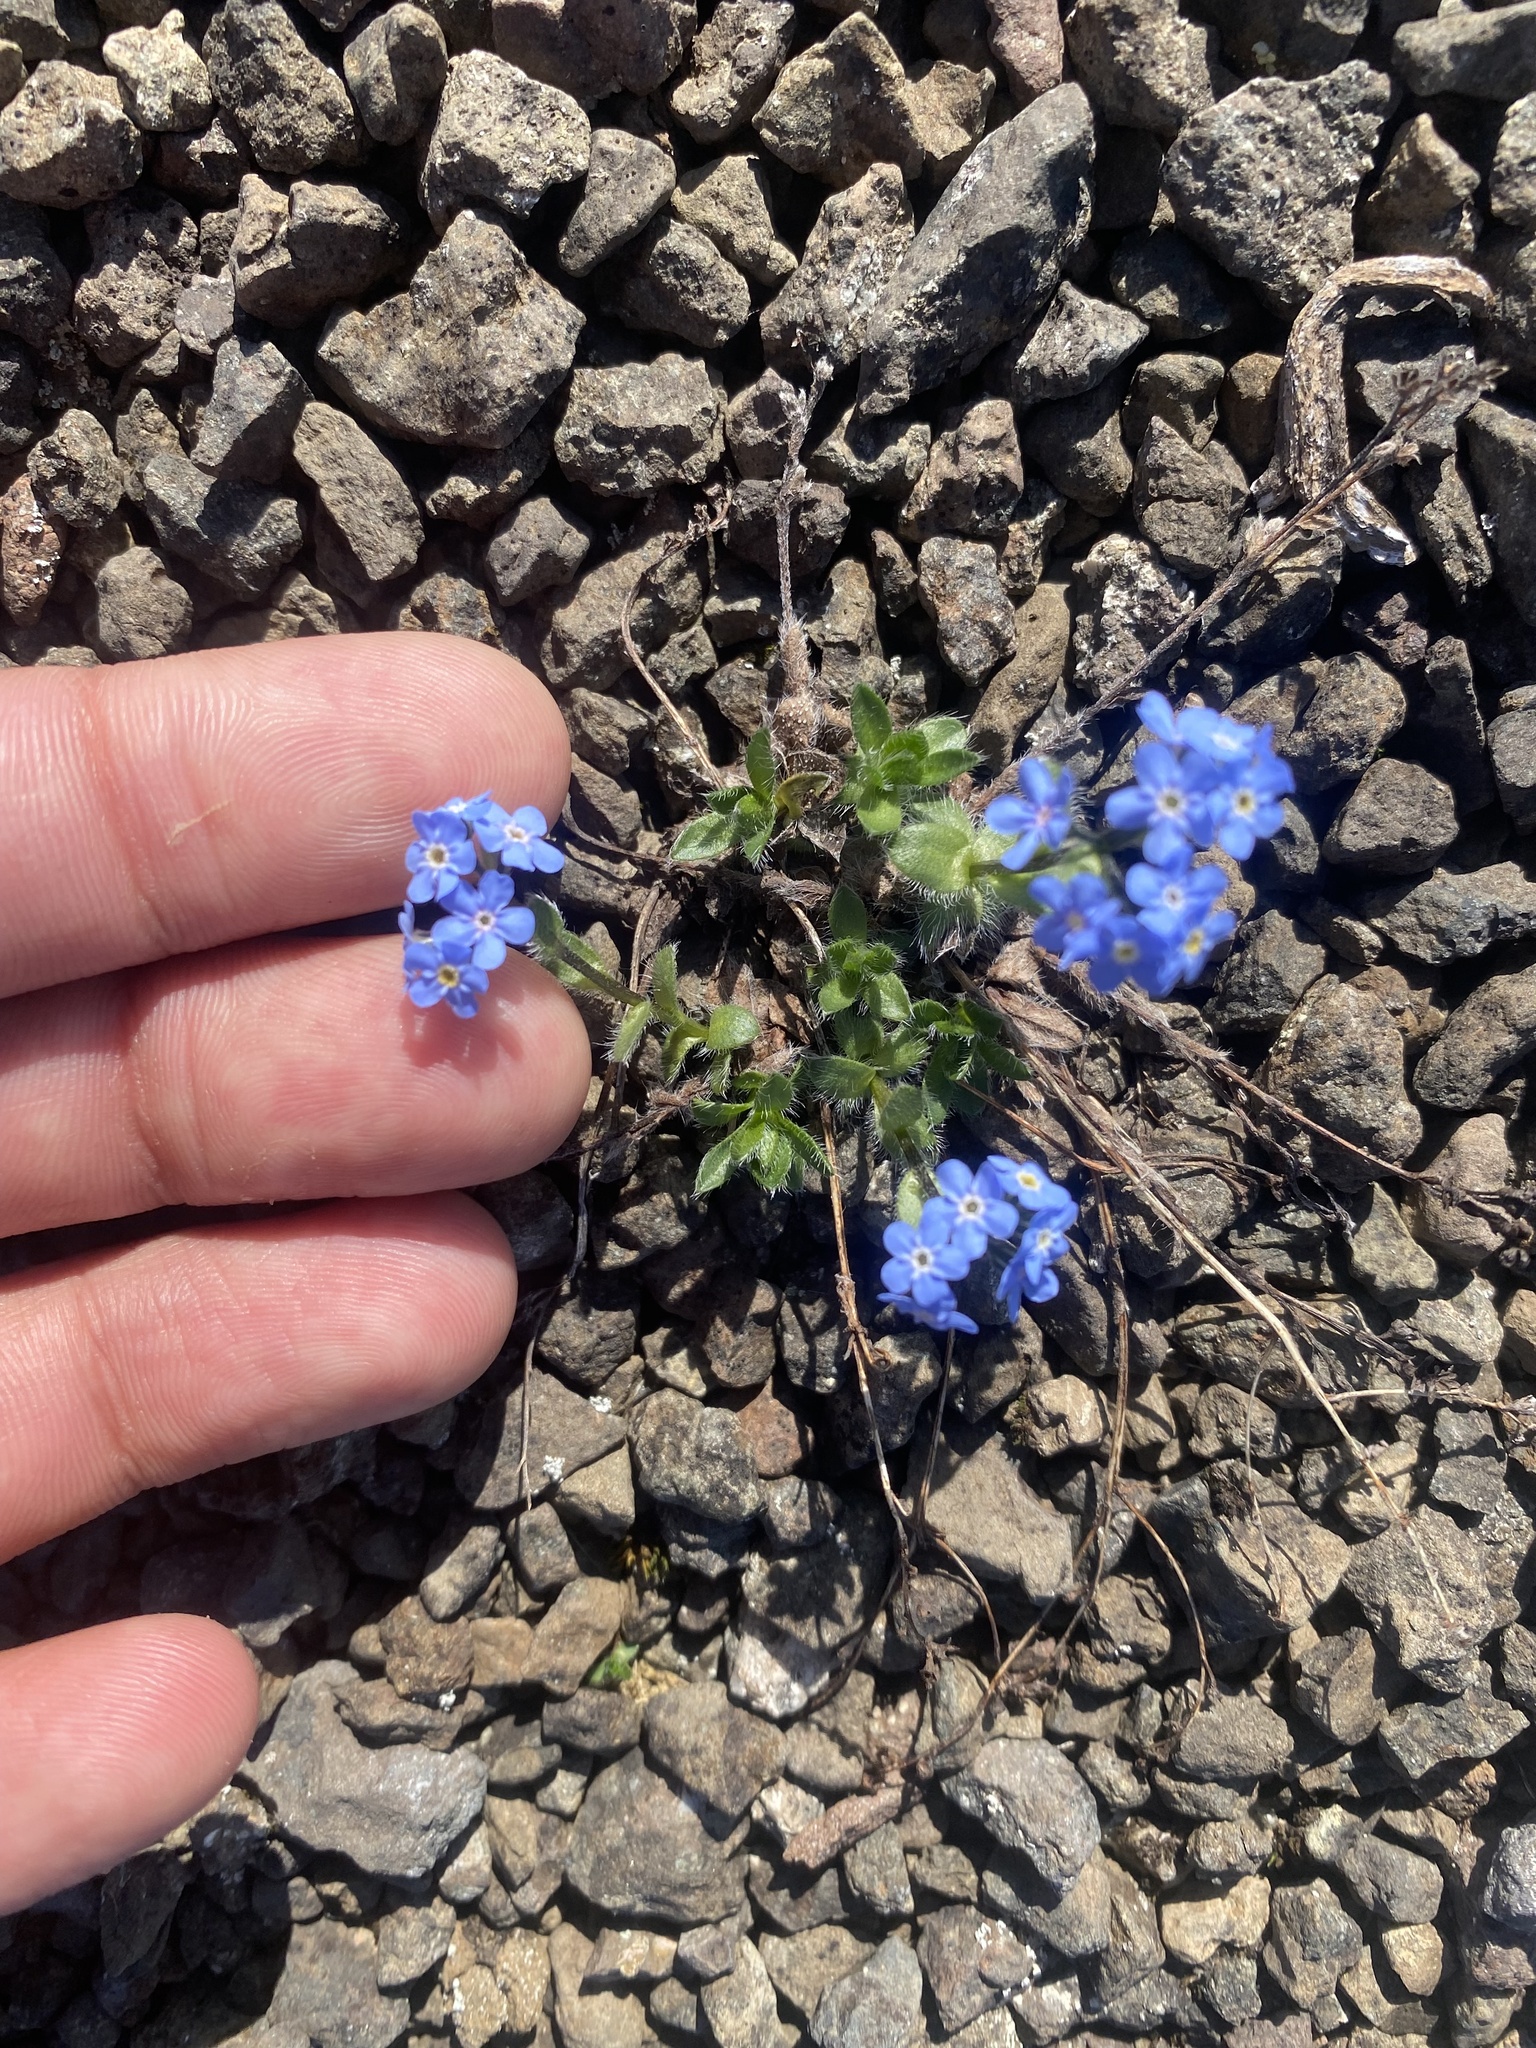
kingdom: Plantae
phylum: Tracheophyta
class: Magnoliopsida
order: Boraginales
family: Boraginaceae
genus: Eritrichium
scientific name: Eritrichium villosum
